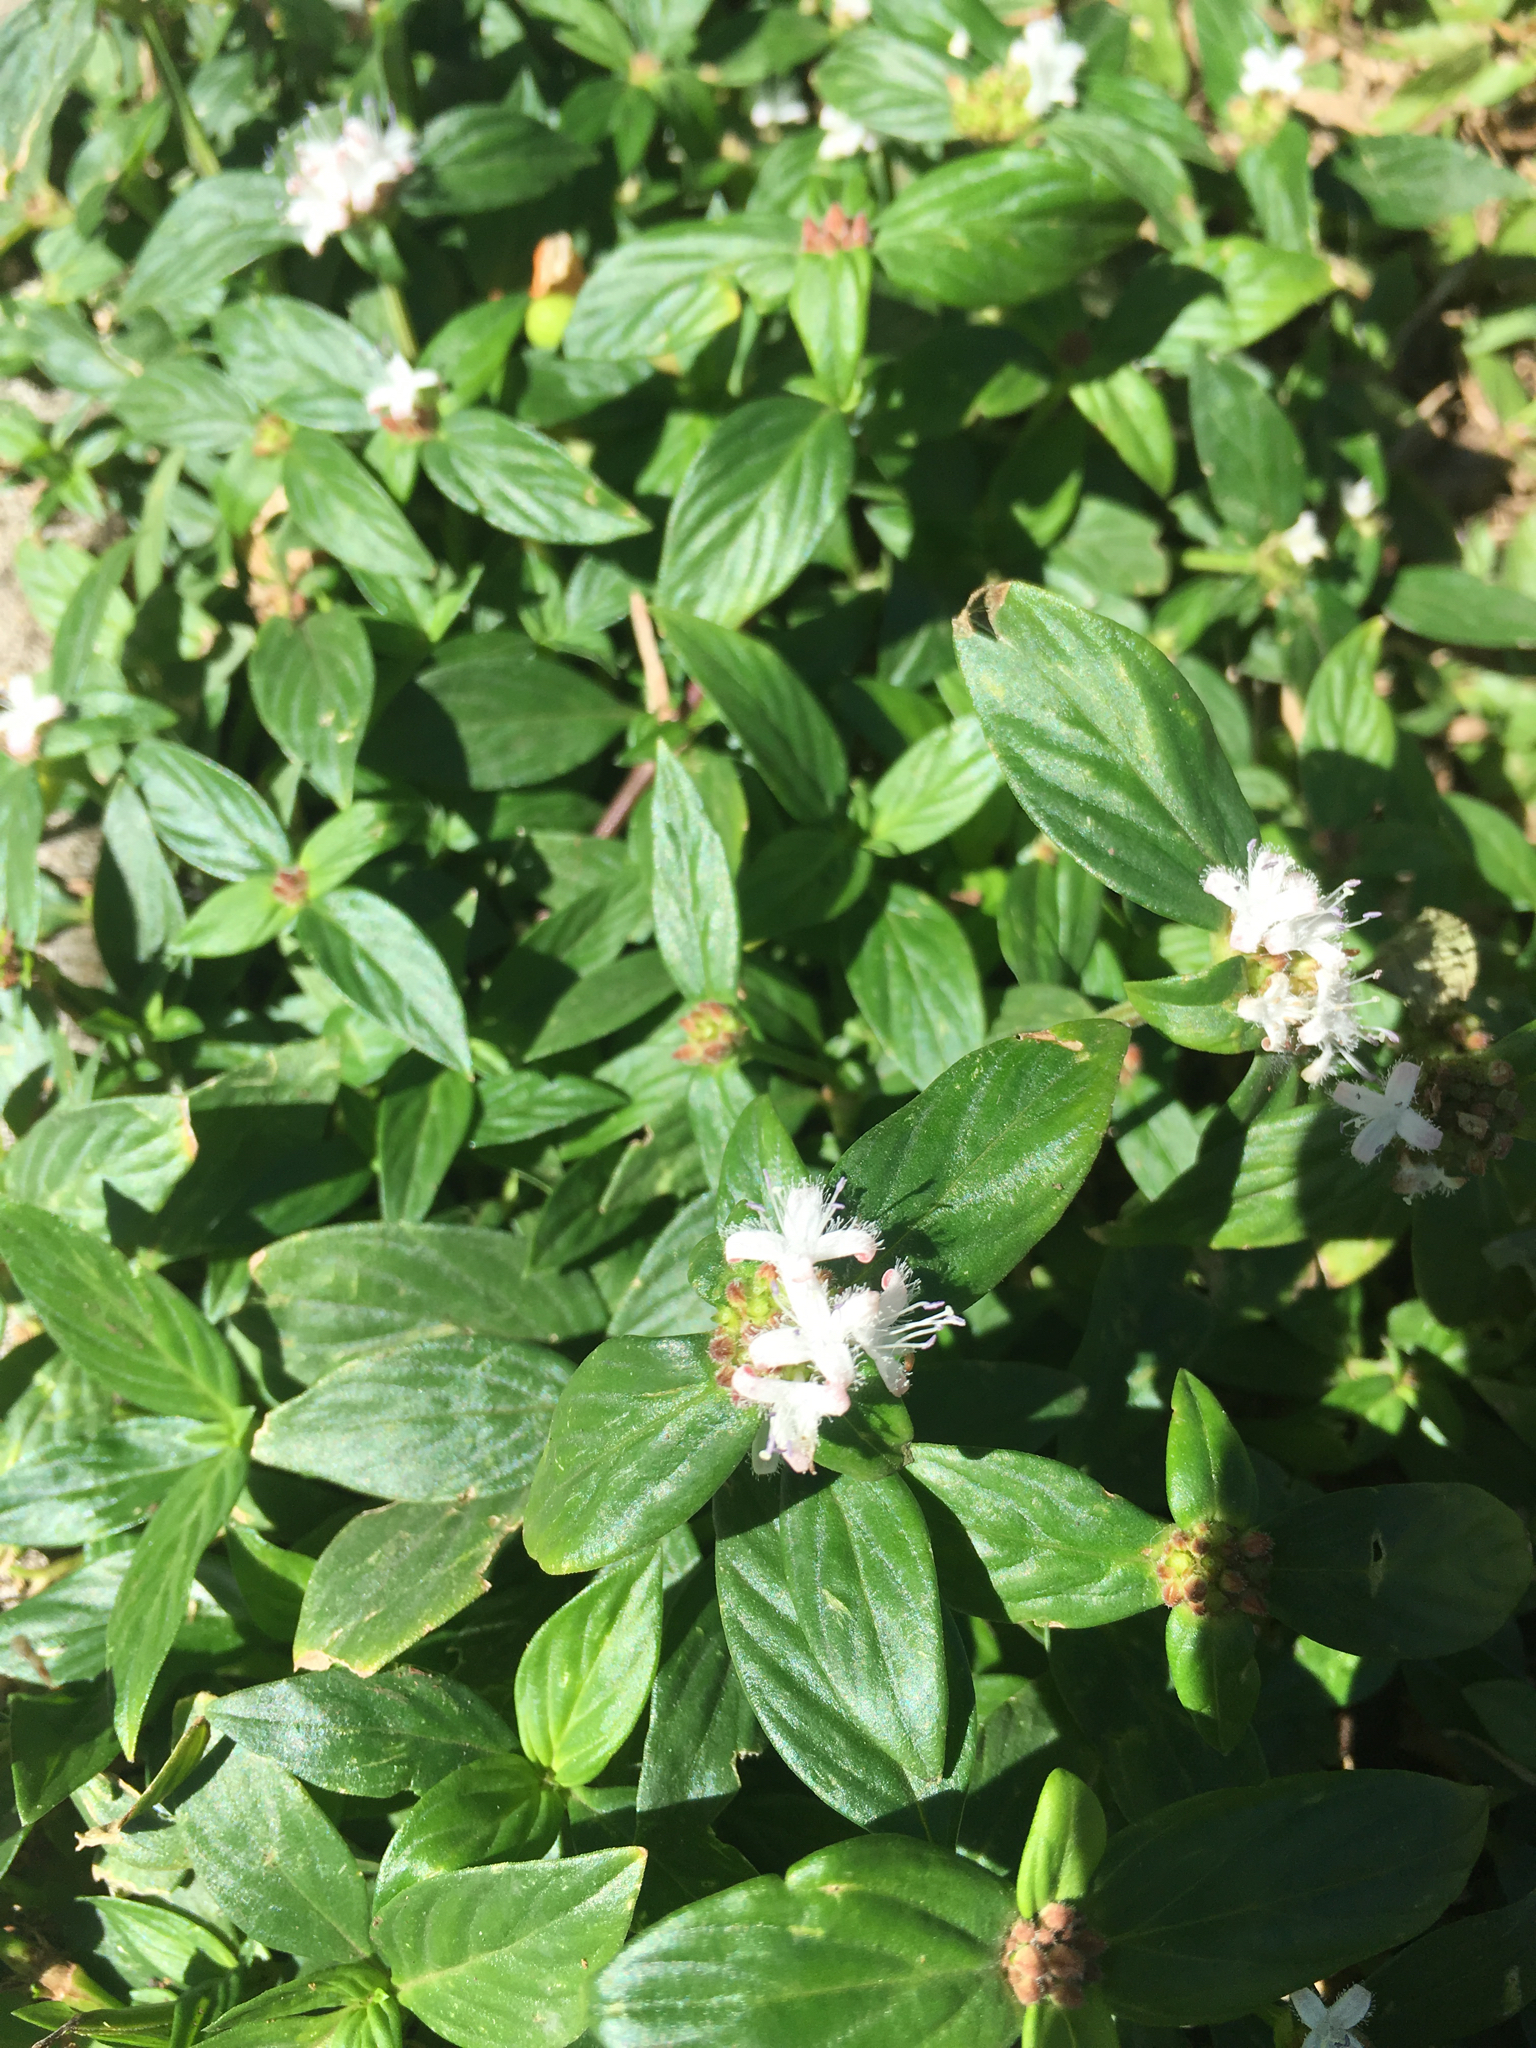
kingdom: Plantae
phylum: Tracheophyta
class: Magnoliopsida
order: Gentianales
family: Rubiaceae
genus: Spermacoce
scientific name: Spermacoce remota
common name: Woodland false buttonweed
